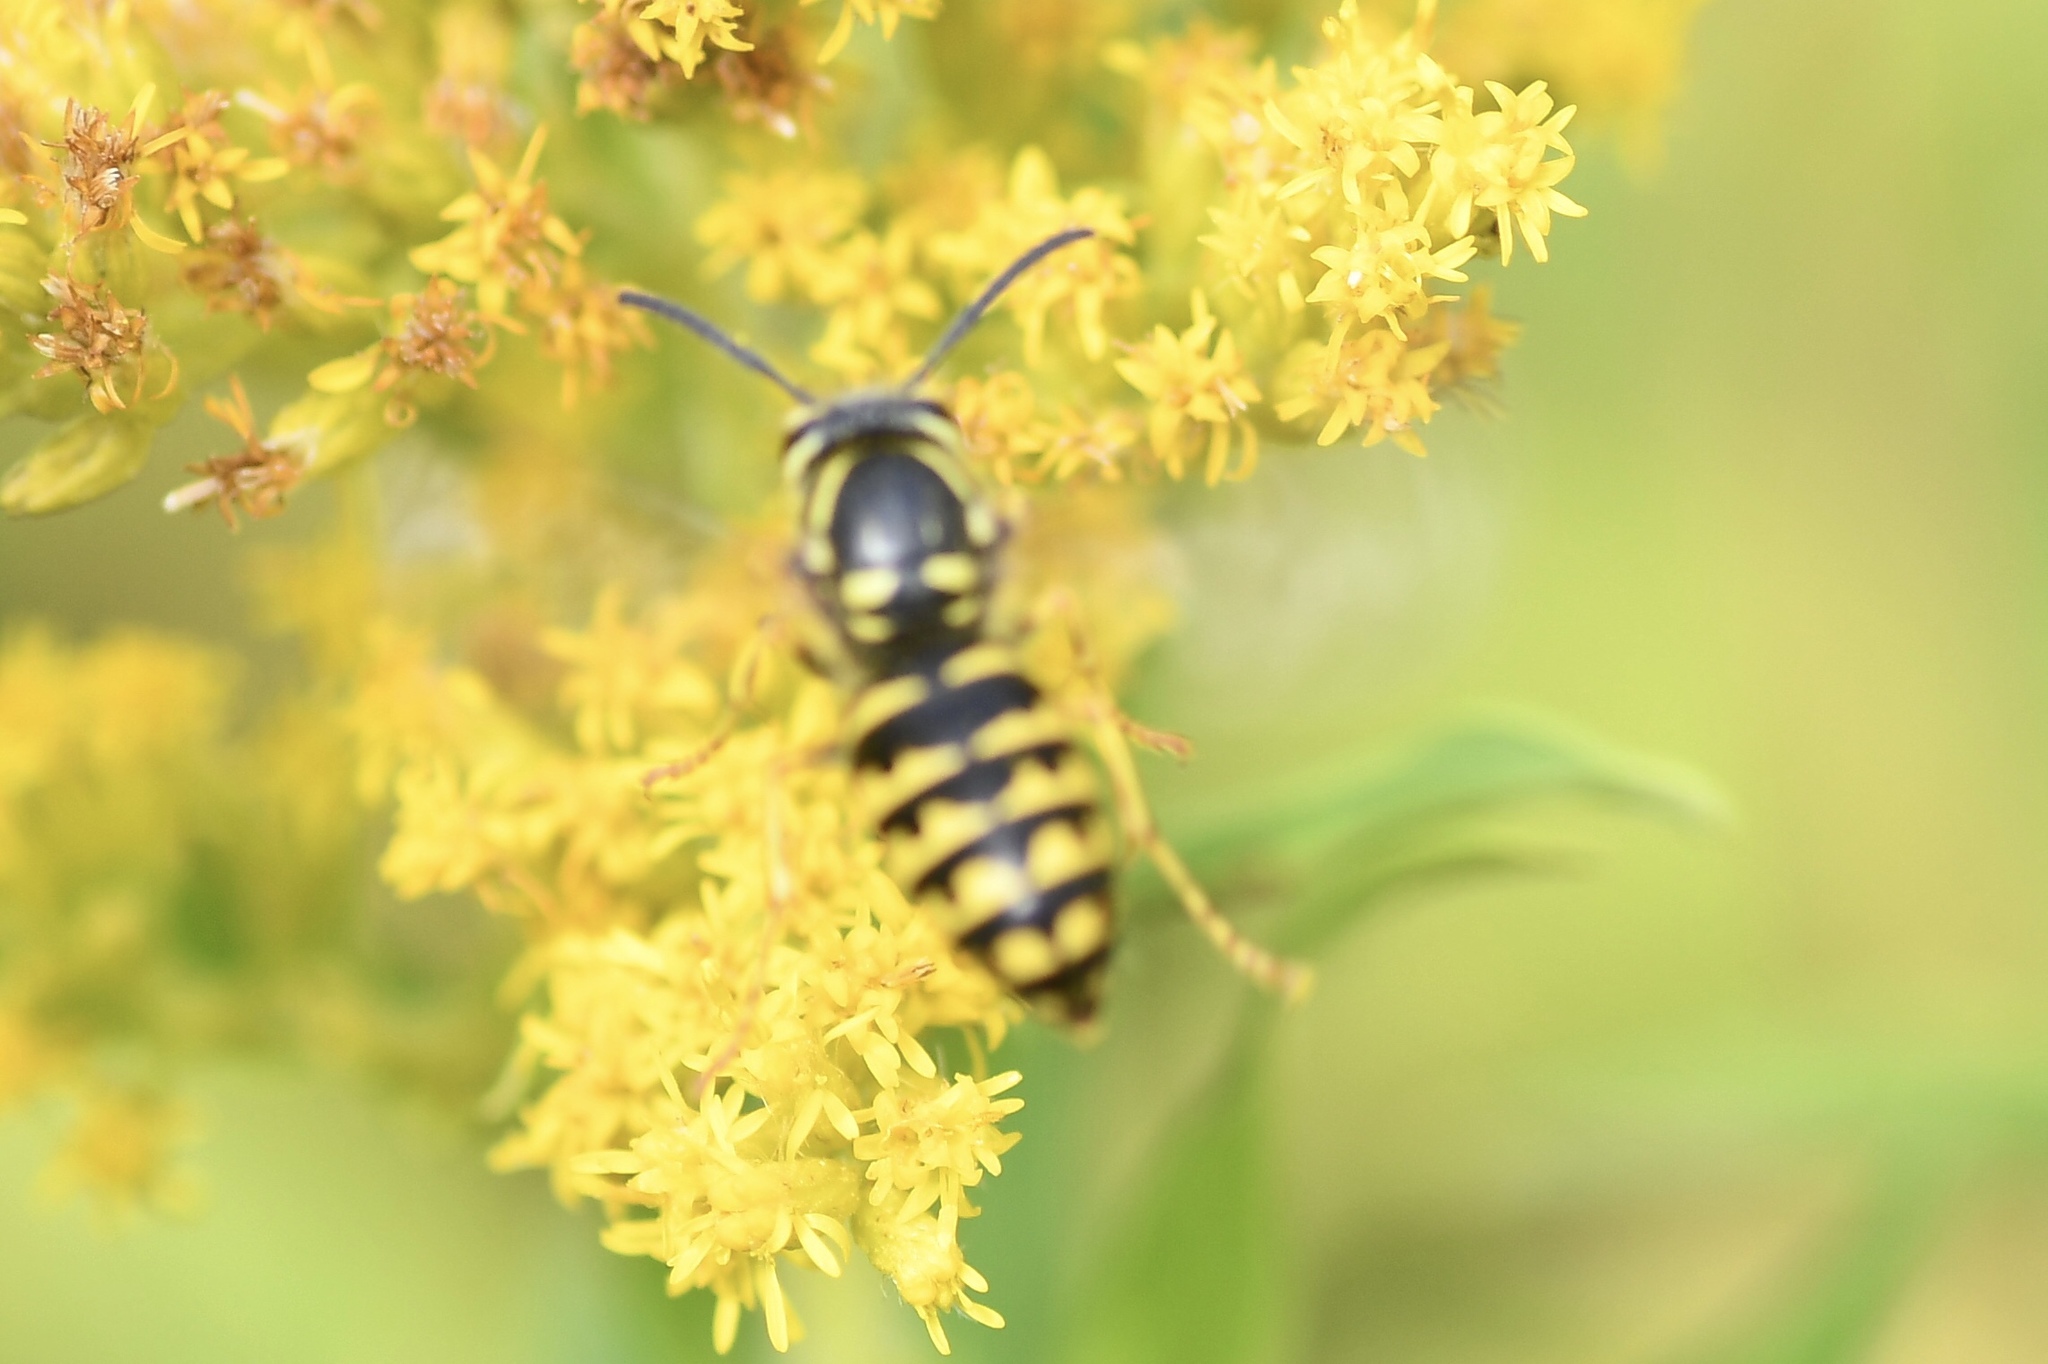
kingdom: Animalia
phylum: Arthropoda
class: Insecta
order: Hymenoptera
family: Vespidae
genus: Dolichovespula
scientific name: Dolichovespula arenaria
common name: Aerial yellowjacket
